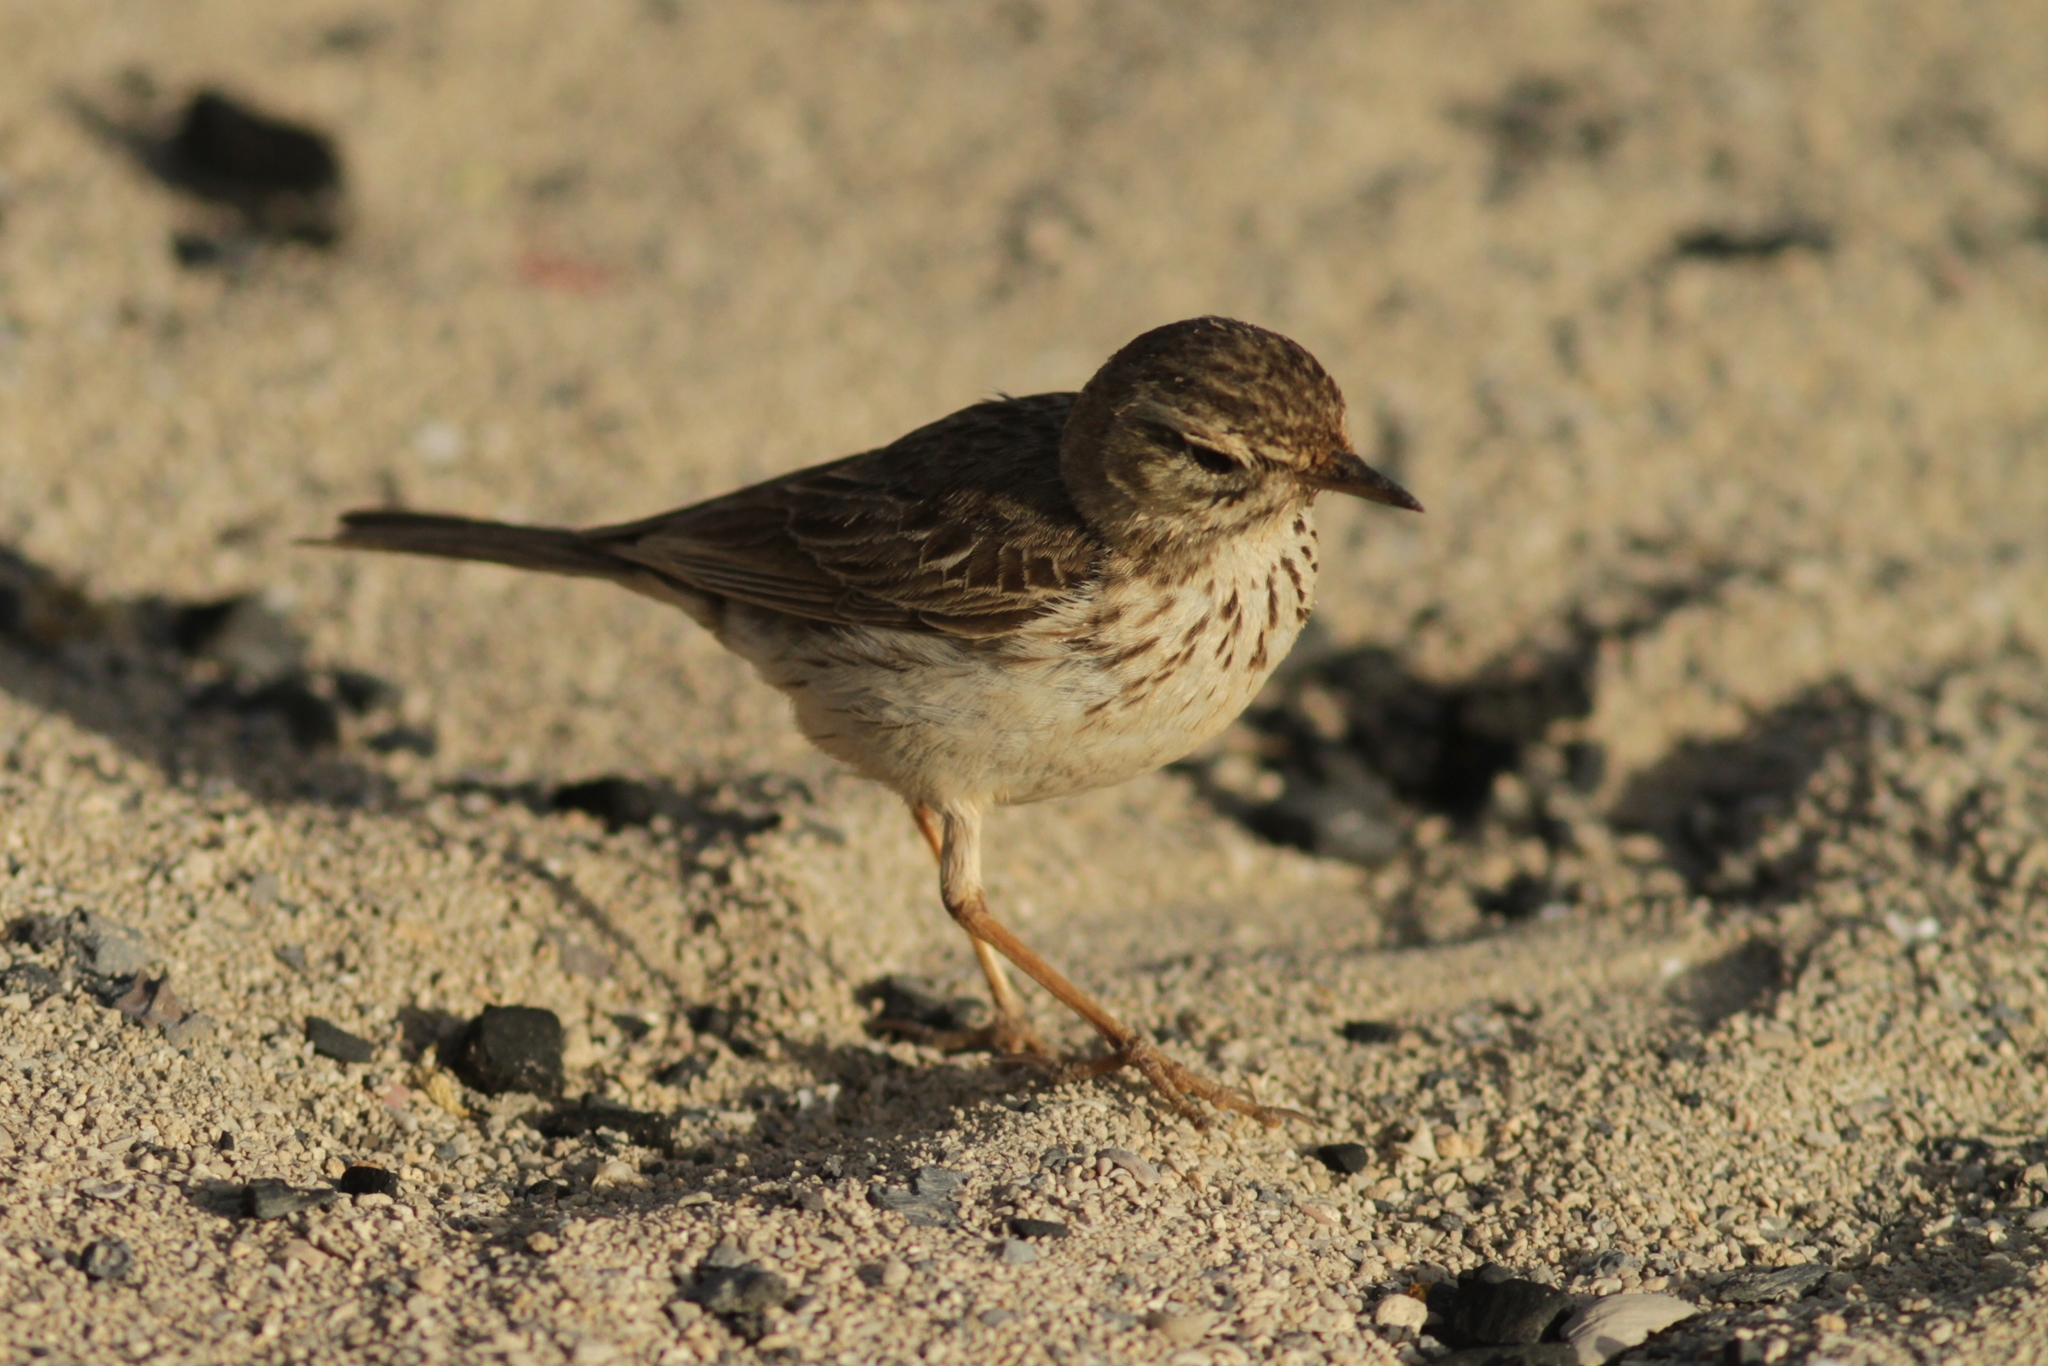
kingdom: Animalia
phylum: Chordata
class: Aves
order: Passeriformes
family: Motacillidae
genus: Anthus
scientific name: Anthus berthelotii
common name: Berthelot's pipit
